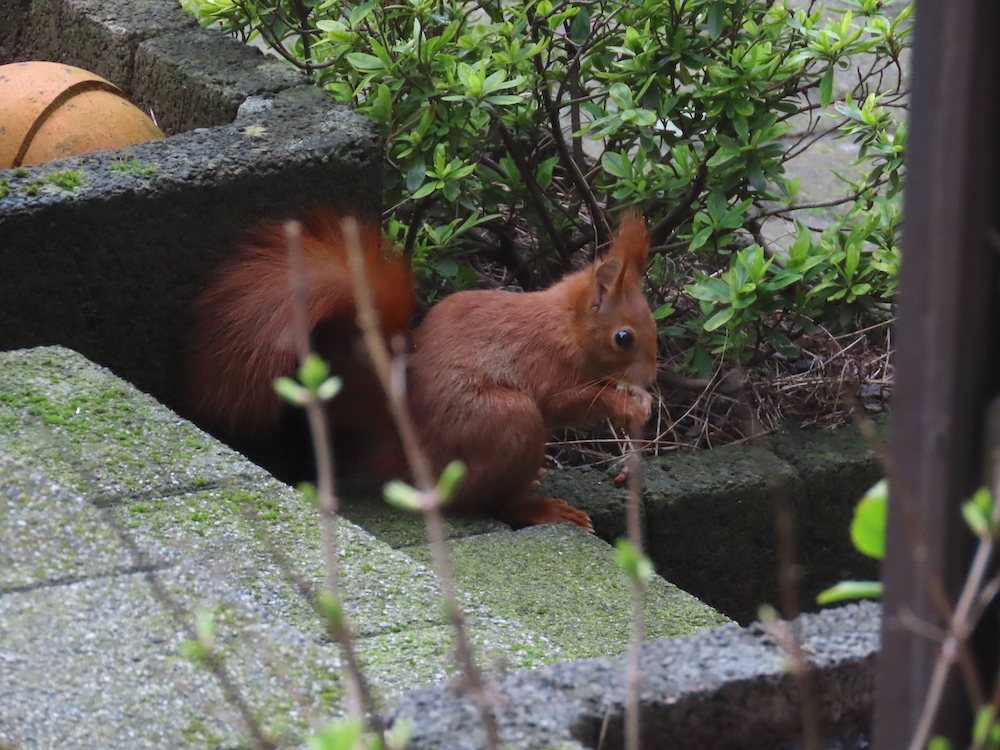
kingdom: Animalia
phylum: Chordata
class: Mammalia
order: Rodentia
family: Sciuridae
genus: Sciurus
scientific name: Sciurus vulgaris
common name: Eurasian red squirrel
